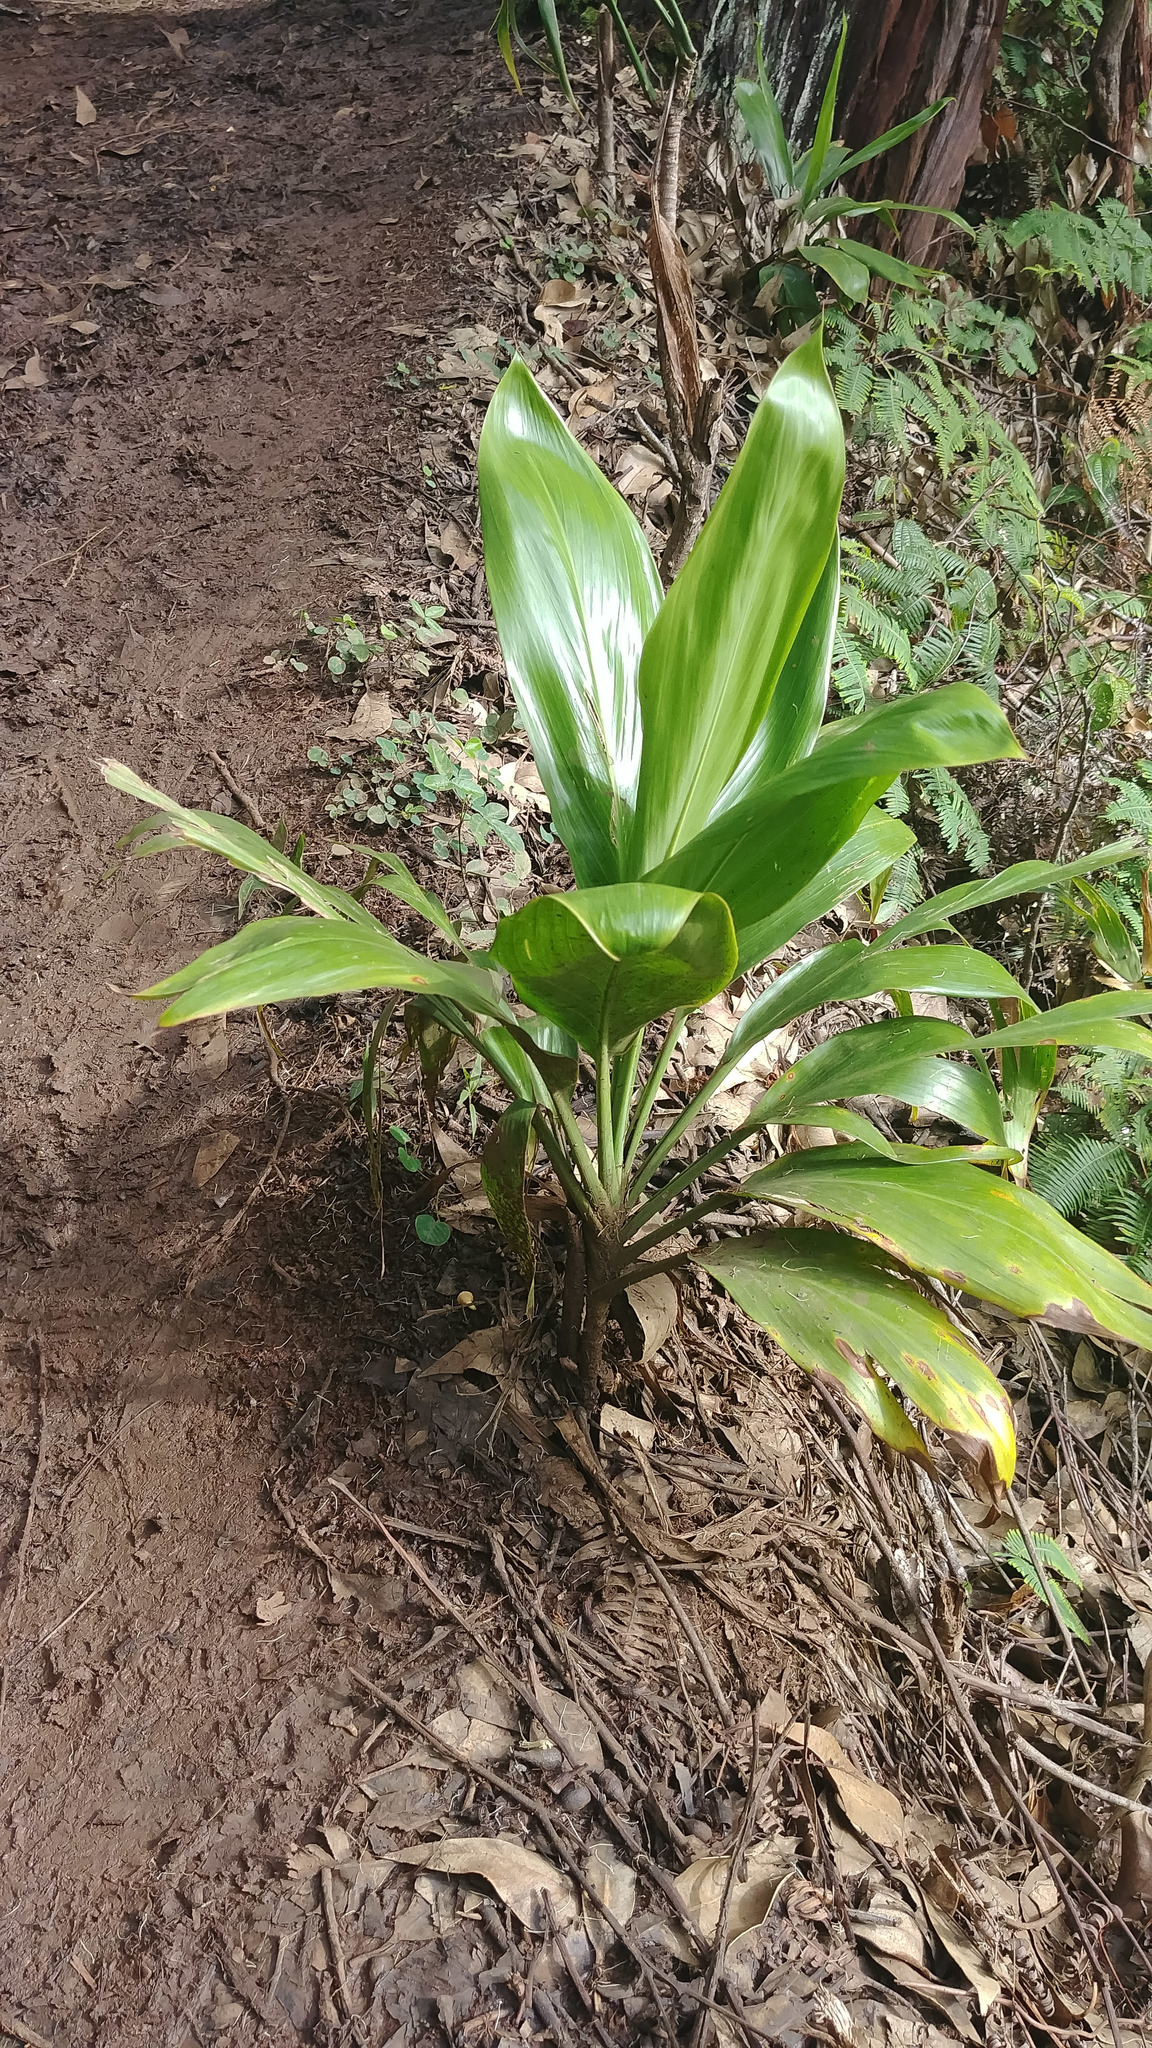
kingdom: Plantae
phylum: Tracheophyta
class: Liliopsida
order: Asparagales
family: Asparagaceae
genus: Cordyline
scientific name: Cordyline fruticosa
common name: Good-luck-plant
